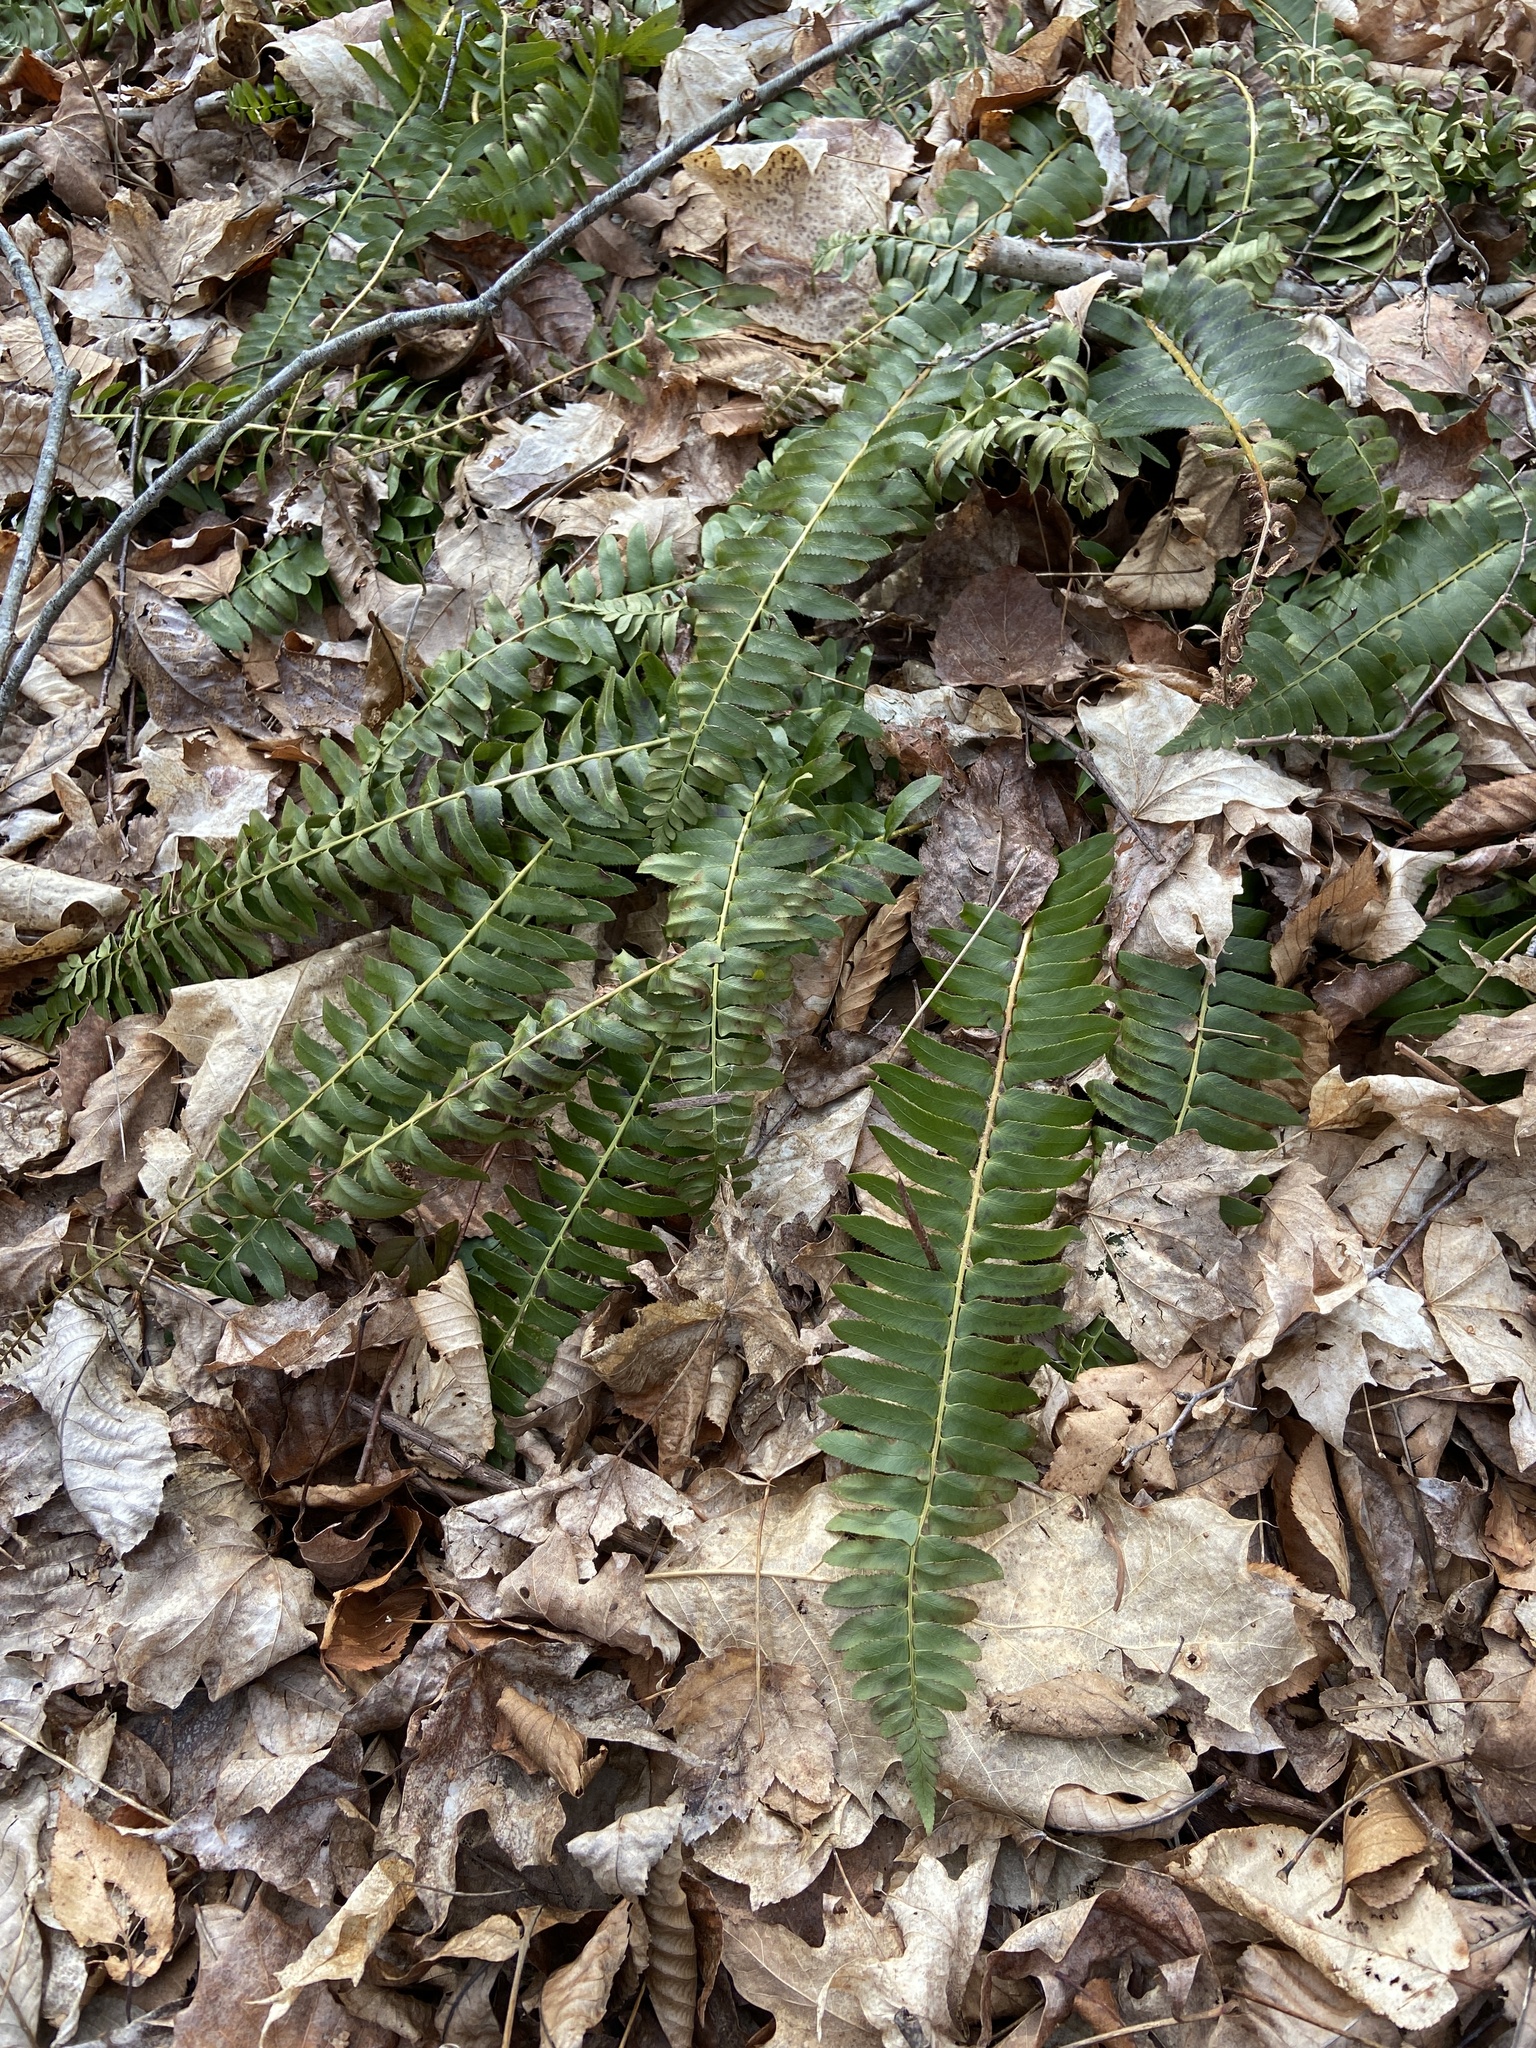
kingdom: Plantae
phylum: Tracheophyta
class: Polypodiopsida
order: Polypodiales
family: Dryopteridaceae
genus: Polystichum
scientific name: Polystichum acrostichoides
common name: Christmas fern
